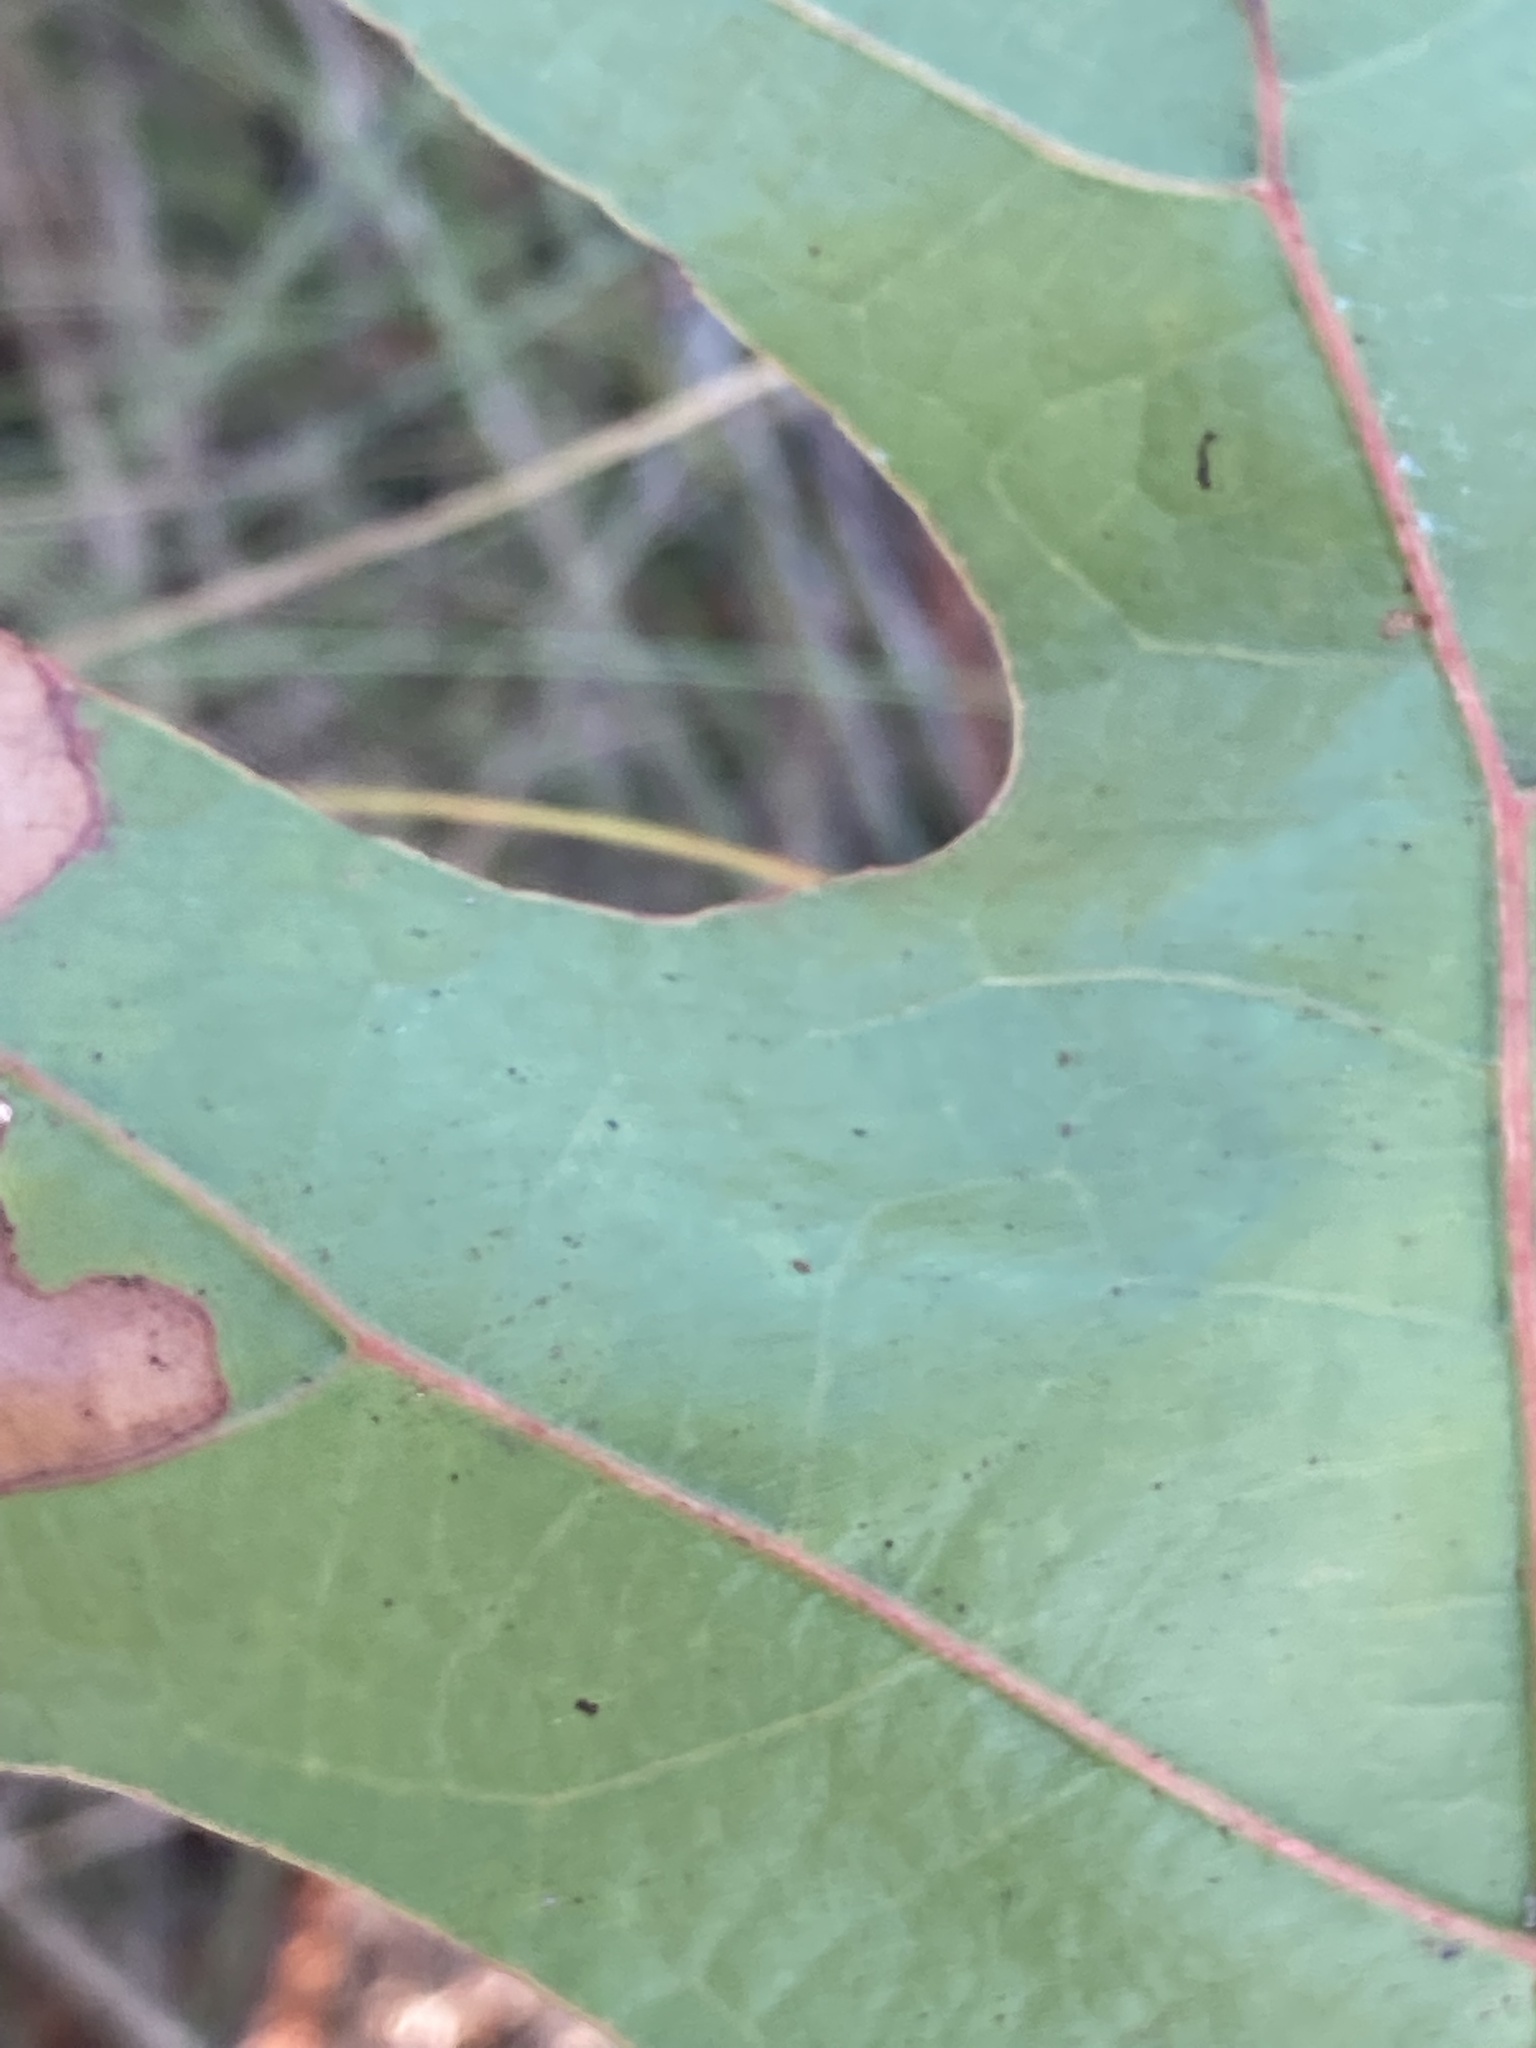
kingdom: Plantae
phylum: Tracheophyta
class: Magnoliopsida
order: Fagales
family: Fagaceae
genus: Quercus
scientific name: Quercus laevis
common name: Turkey oak
